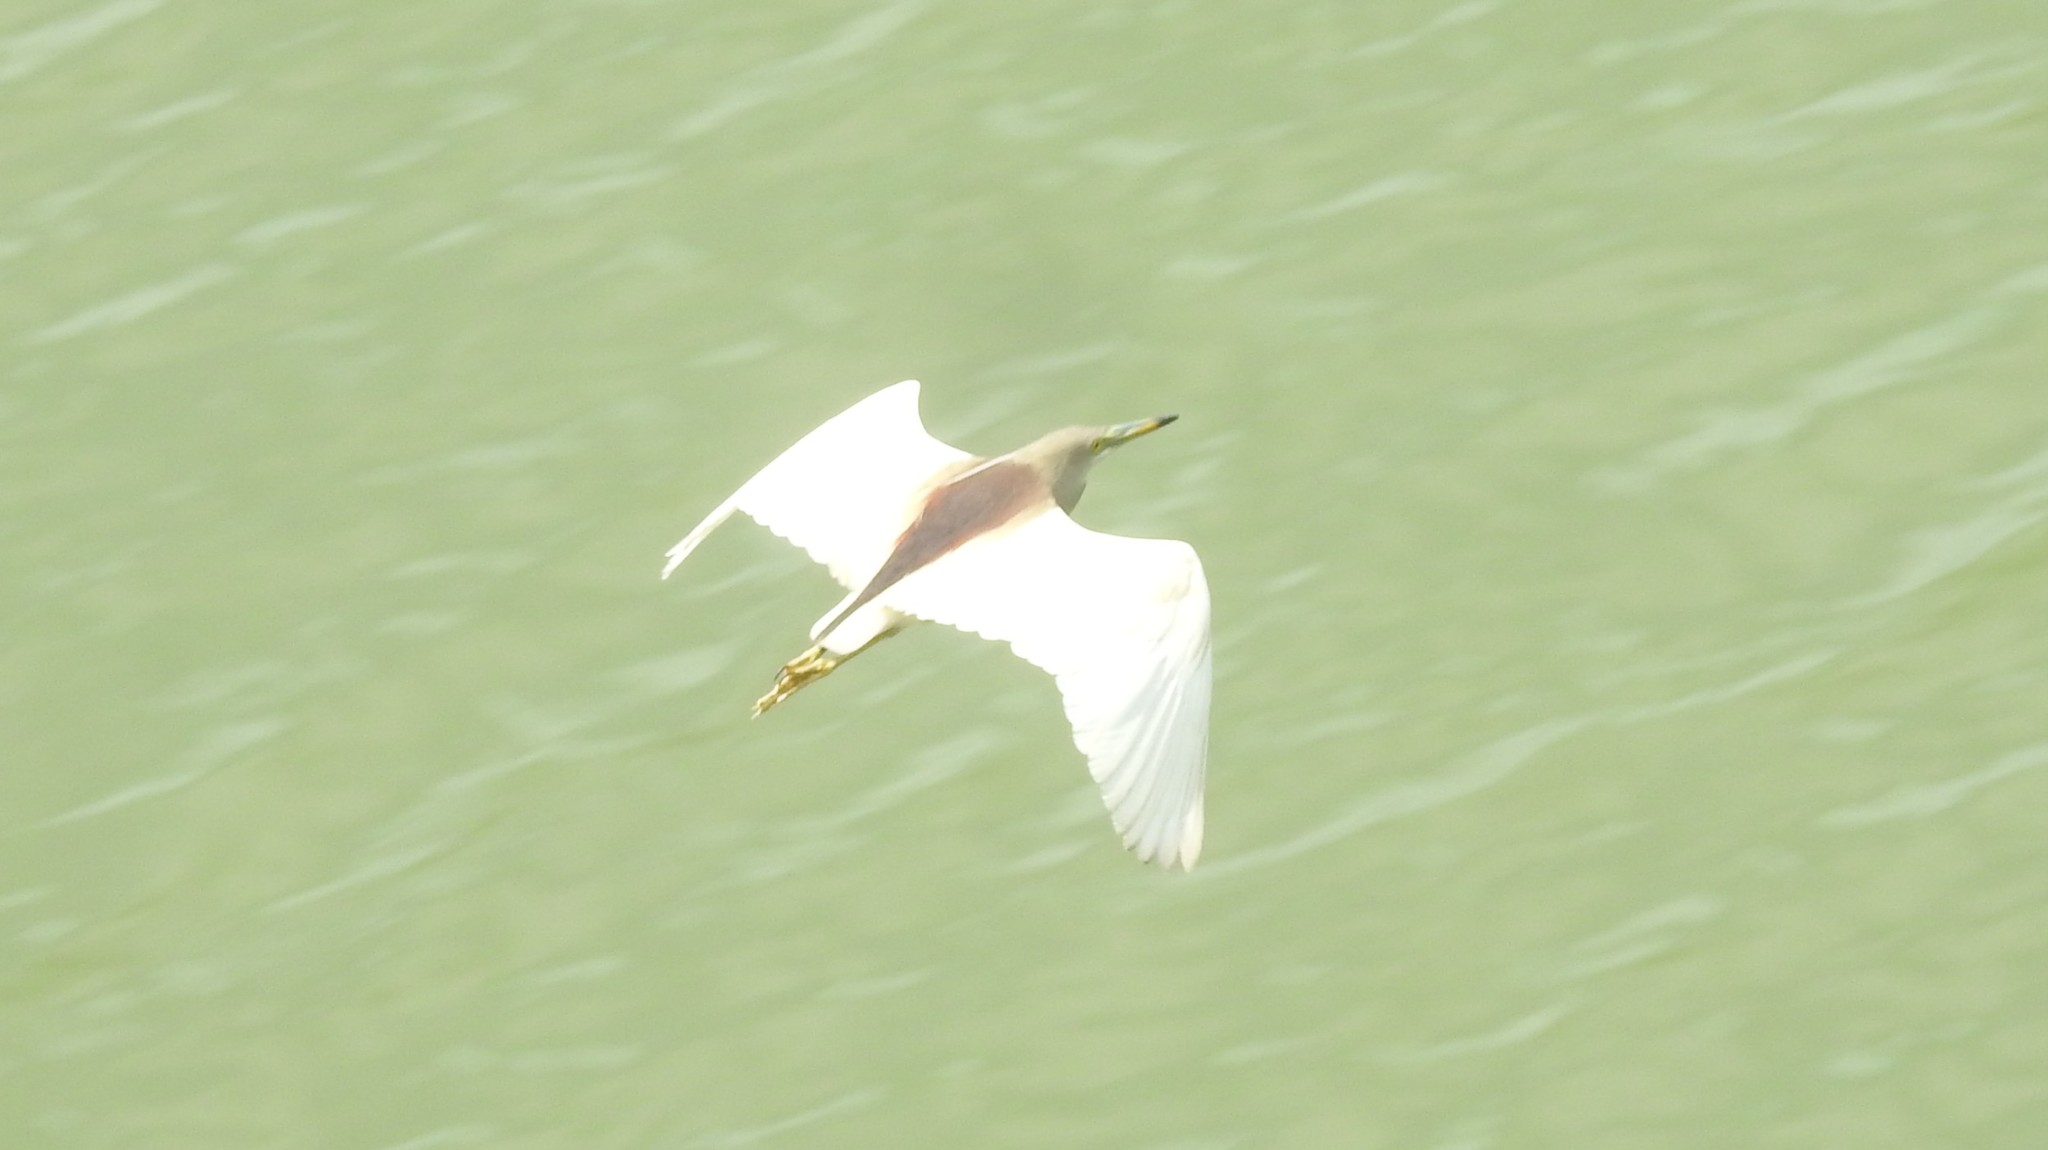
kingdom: Animalia
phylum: Chordata
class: Aves
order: Pelecaniformes
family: Ardeidae
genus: Ardeola
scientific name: Ardeola grayii
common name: Indian pond heron
